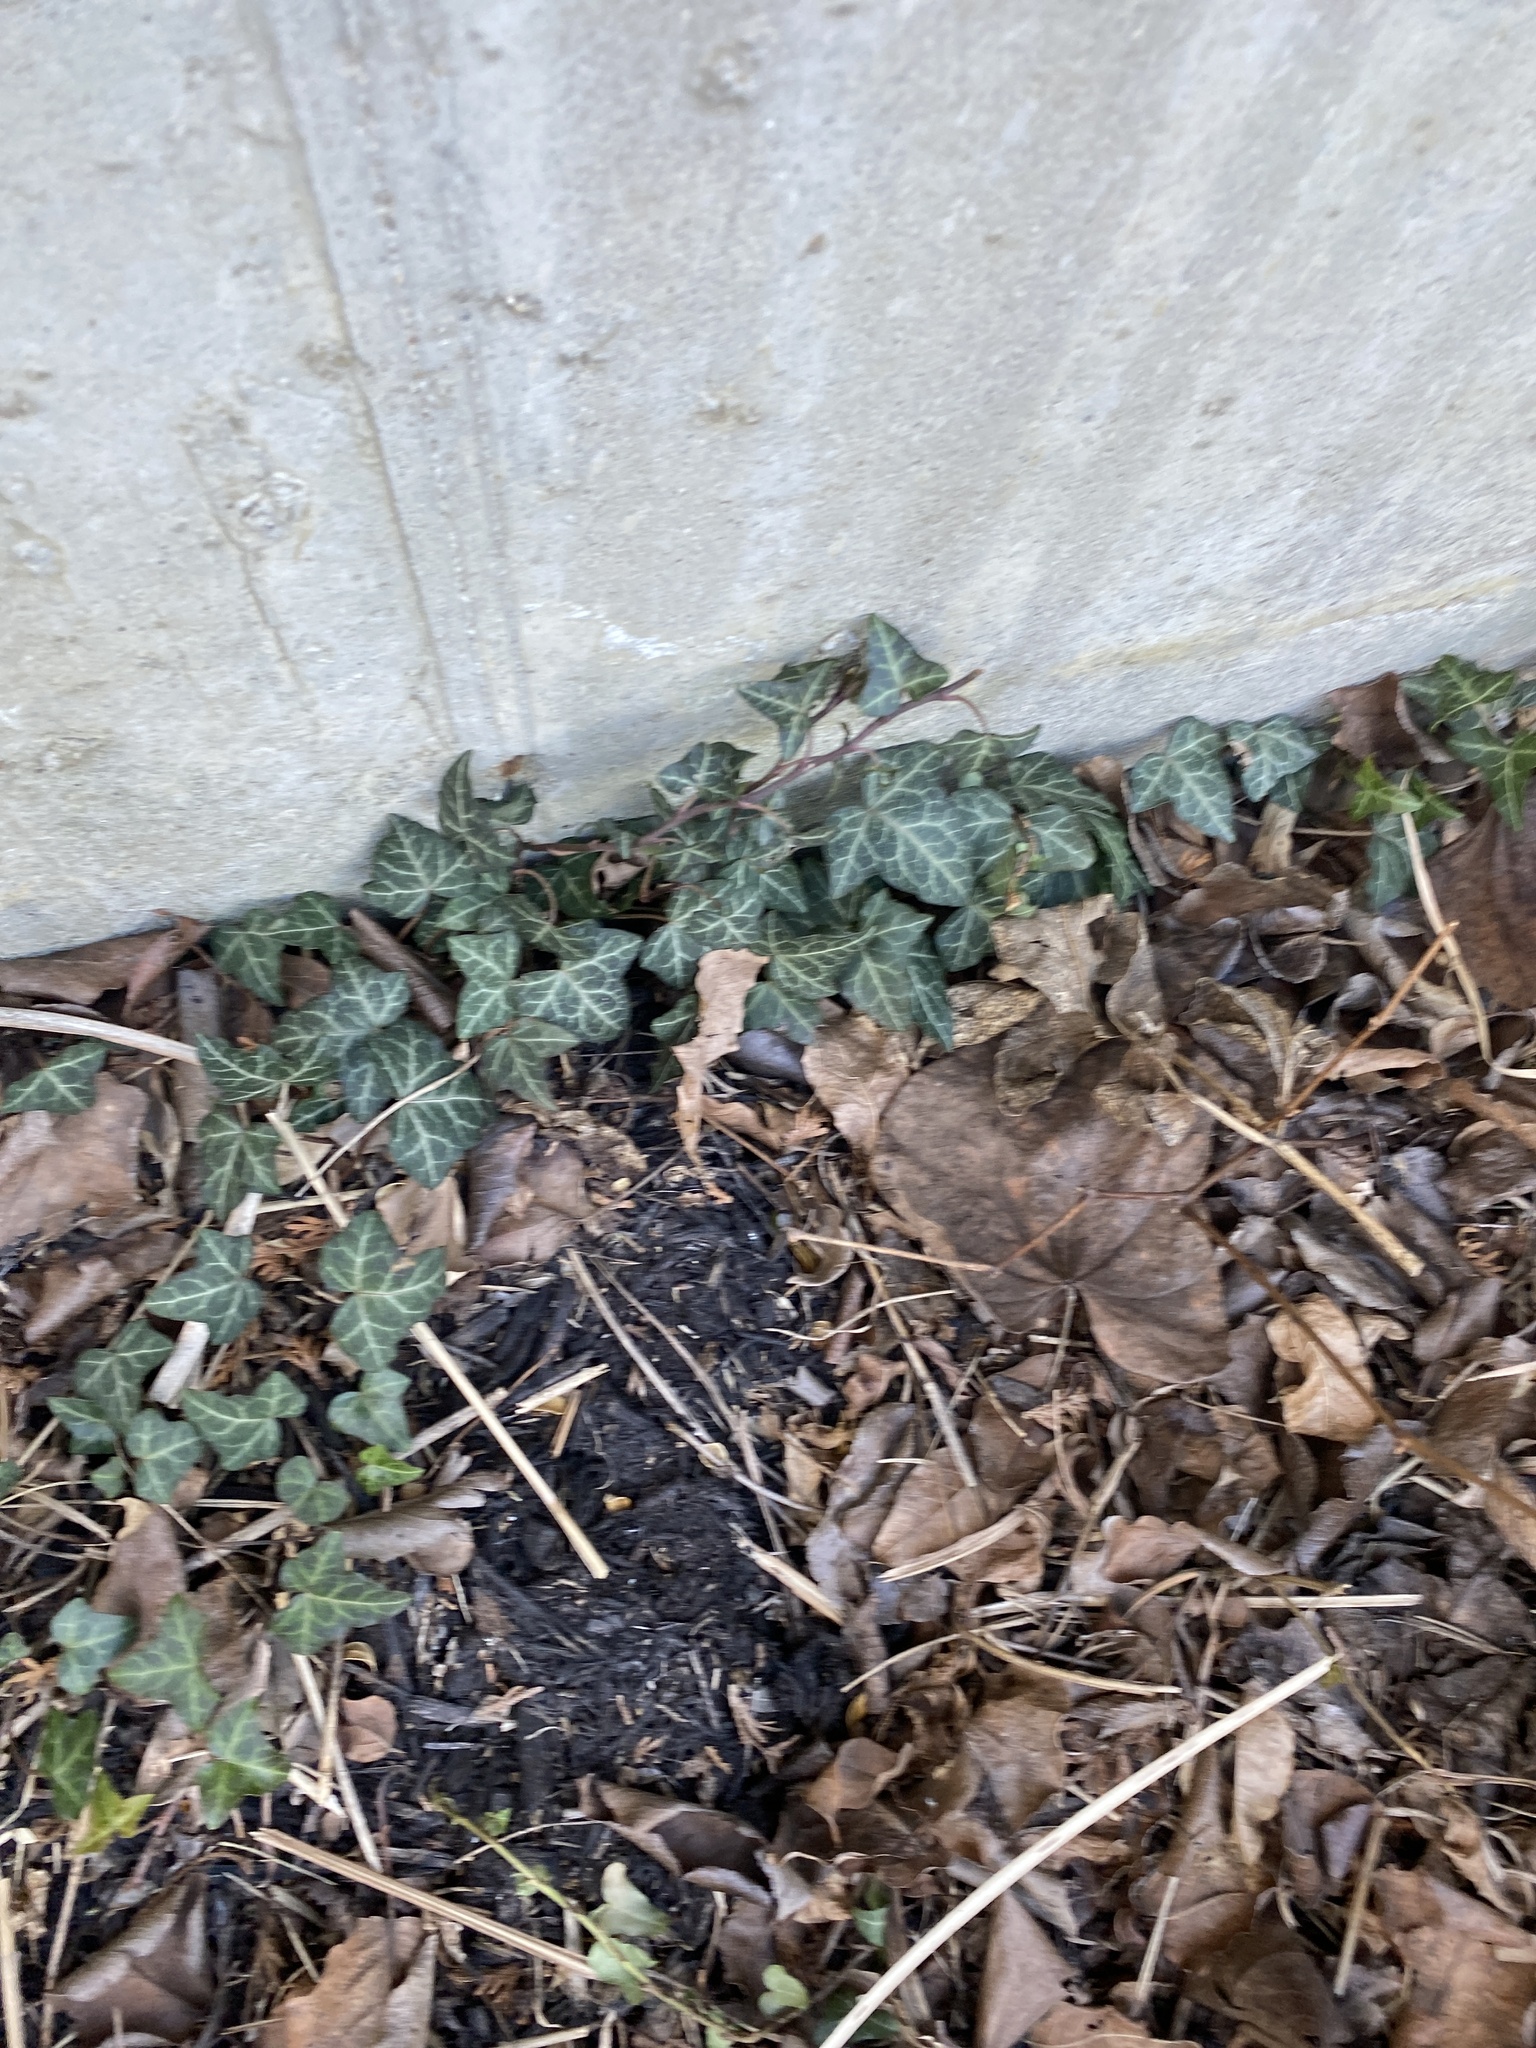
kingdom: Plantae
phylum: Tracheophyta
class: Magnoliopsida
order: Apiales
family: Araliaceae
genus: Hedera
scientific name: Hedera helix
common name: Ivy
